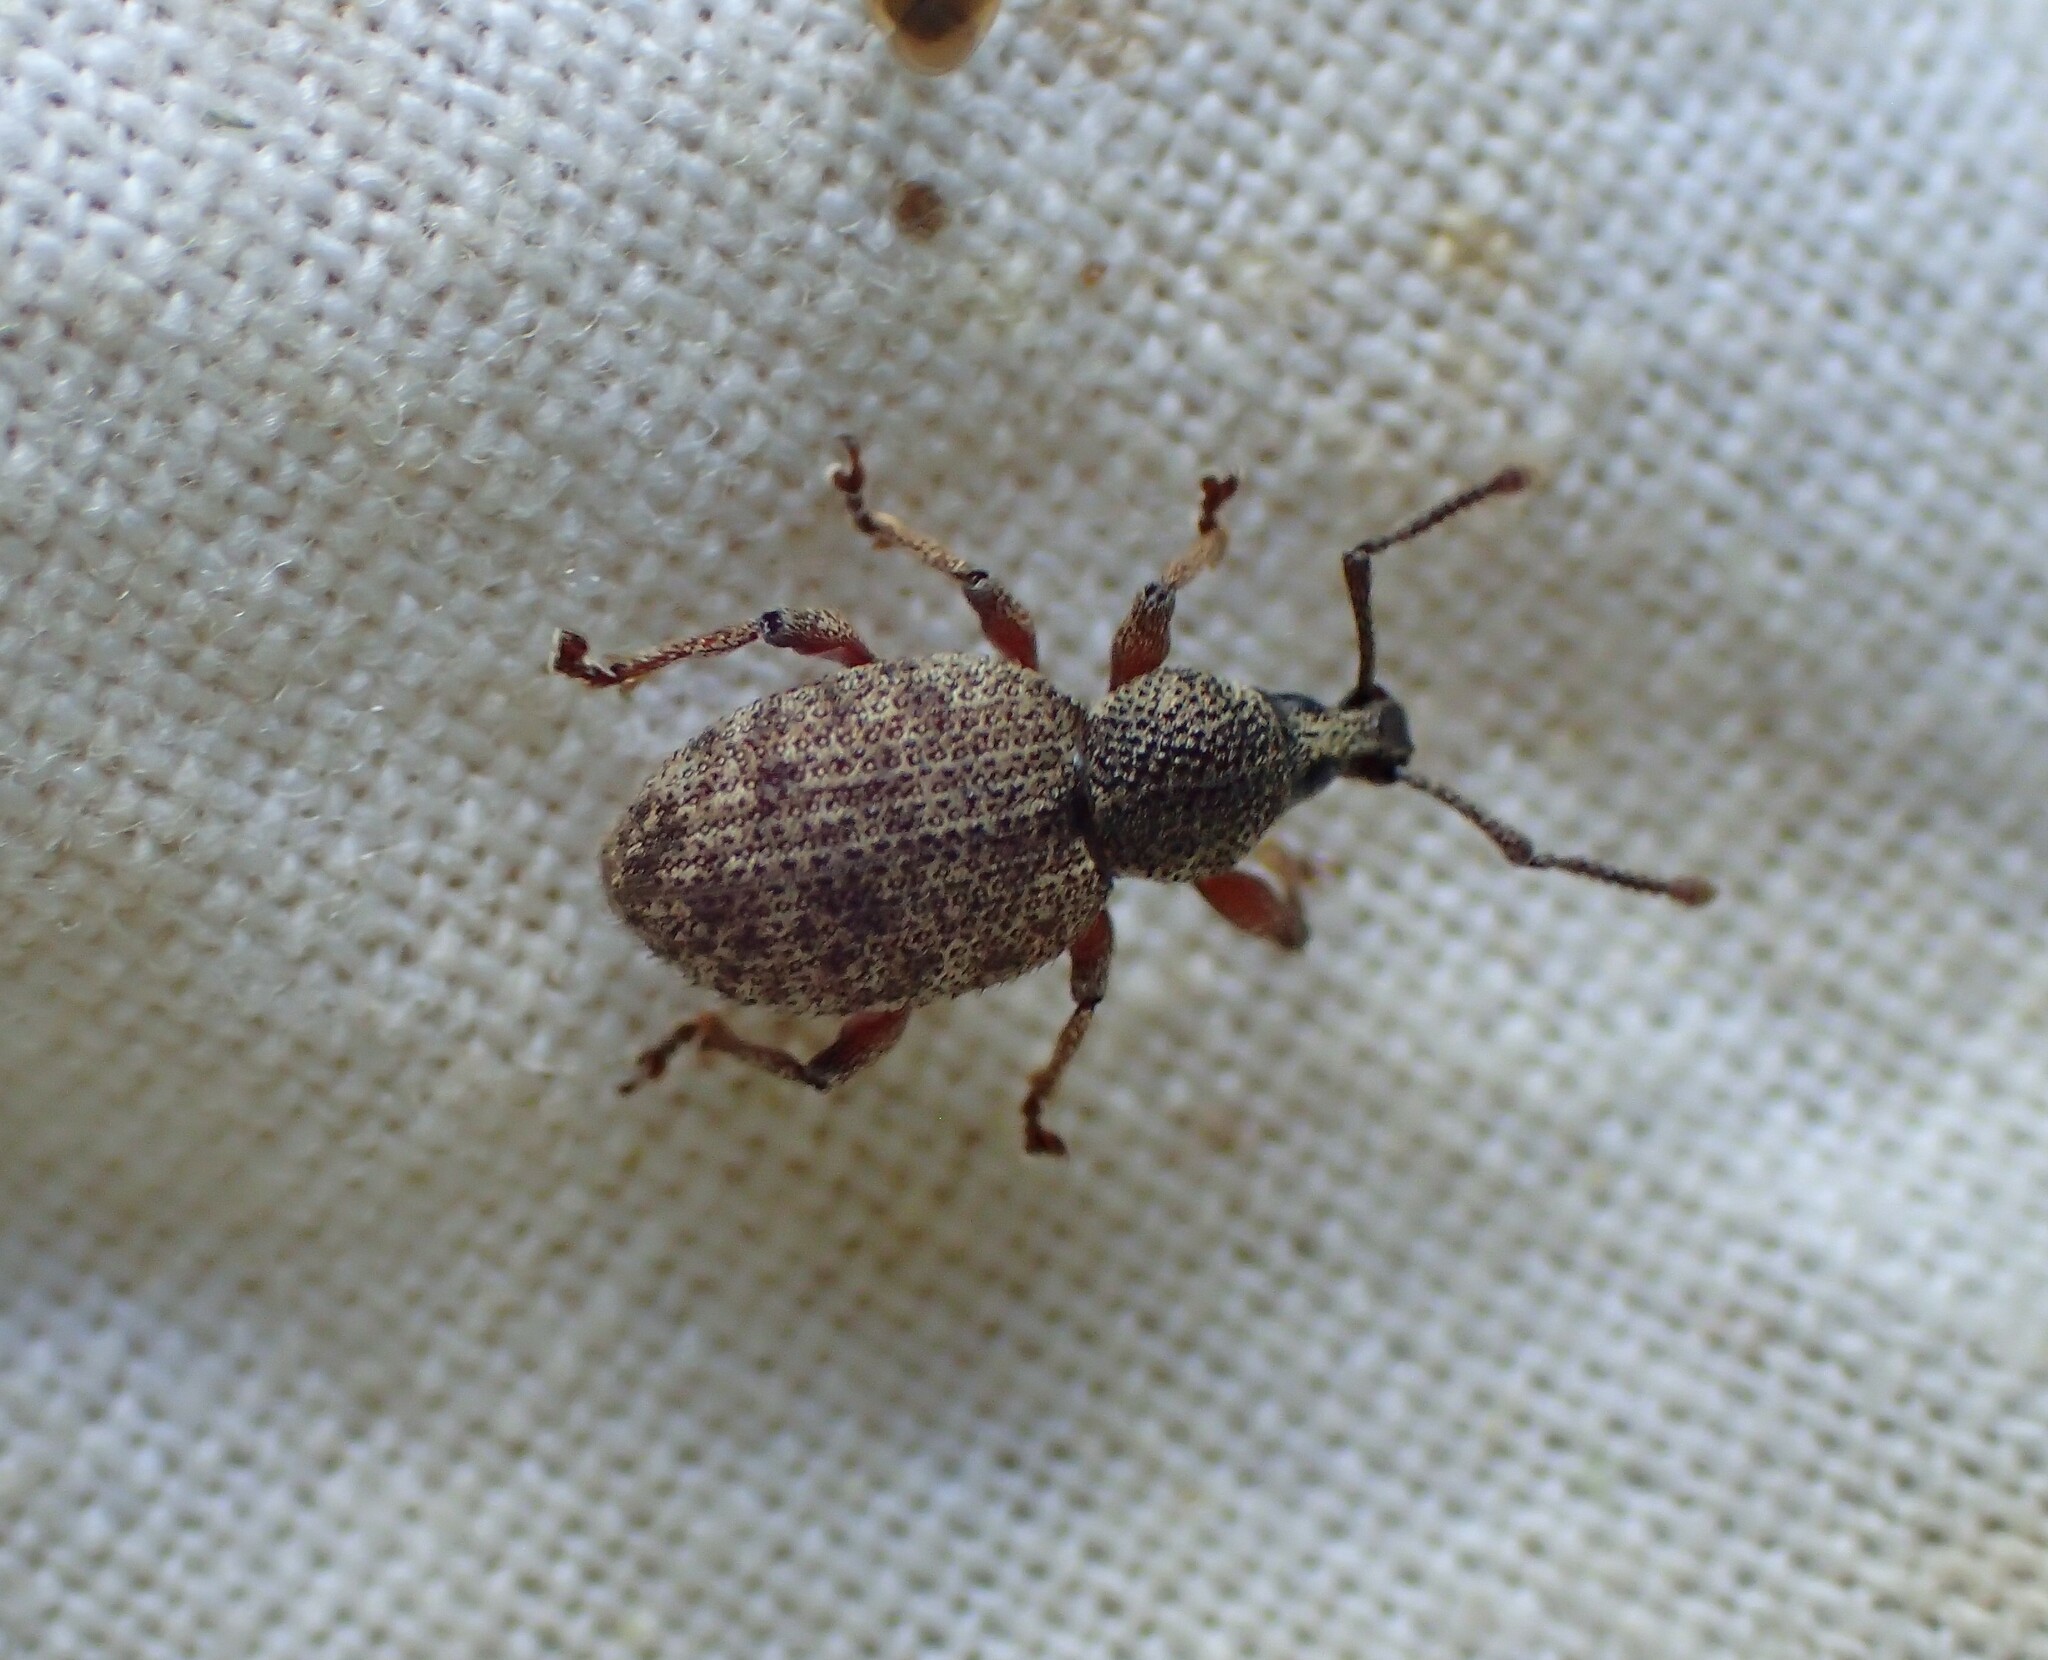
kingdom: Animalia
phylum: Arthropoda
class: Insecta
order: Coleoptera
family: Curculionidae
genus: Otiorhynchus
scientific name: Otiorhynchus singularis
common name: Clay-coloured weevil
